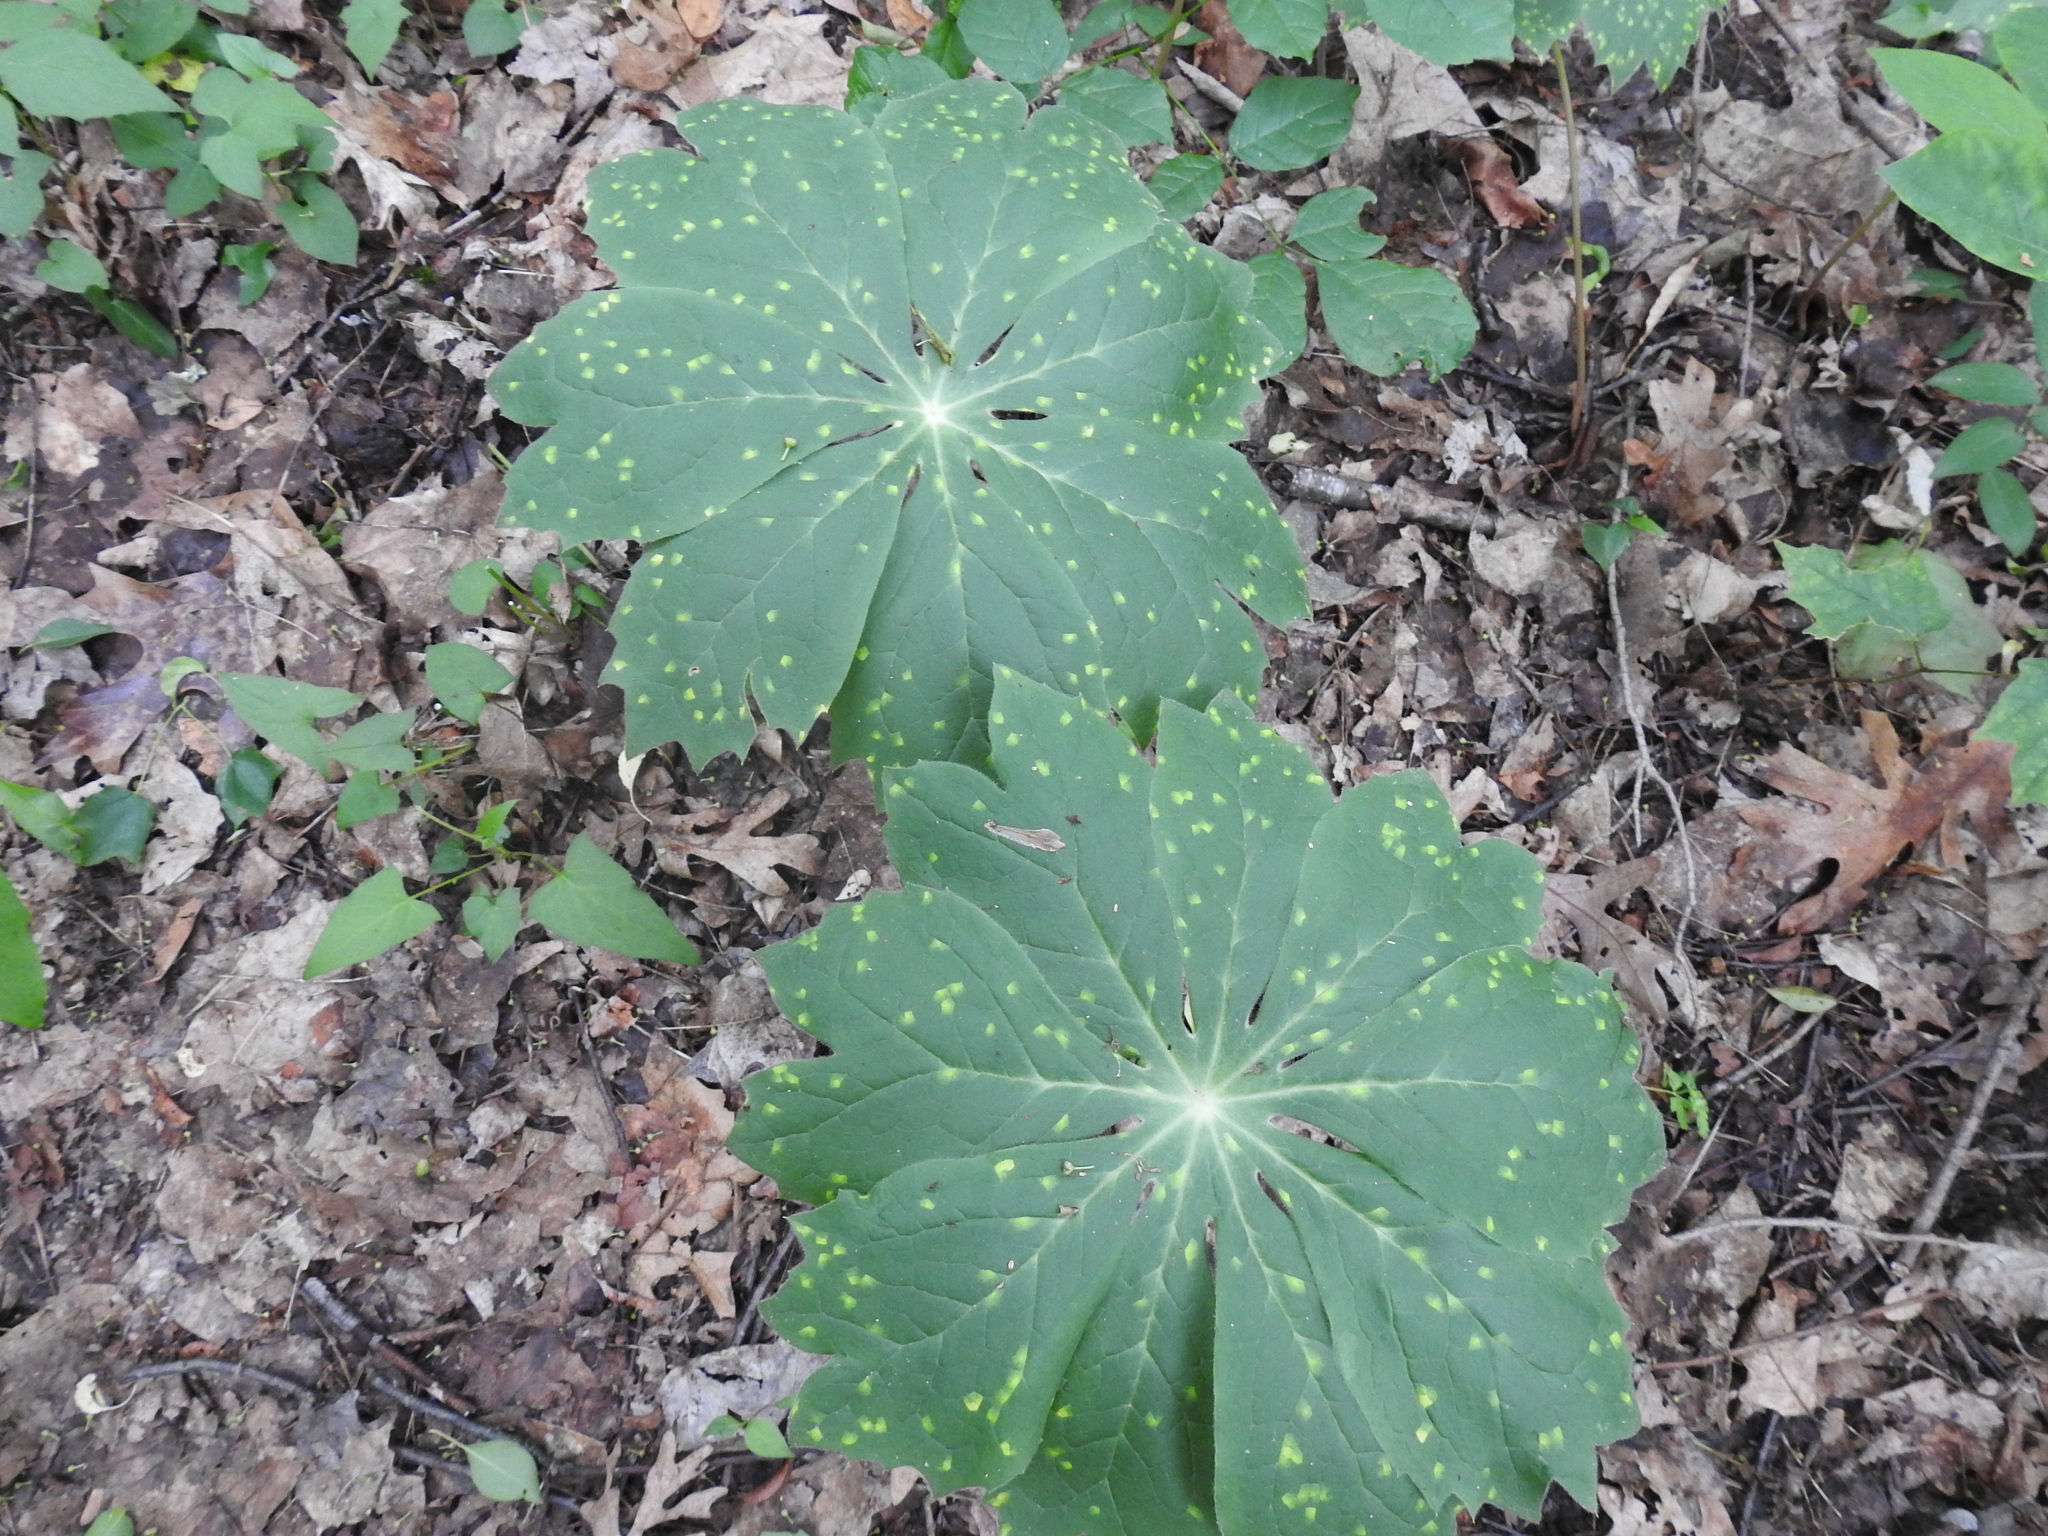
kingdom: Fungi
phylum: Basidiomycota
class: Pucciniomycetes
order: Pucciniales
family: Pucciniaceae
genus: Puccinia
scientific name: Puccinia podophylli
